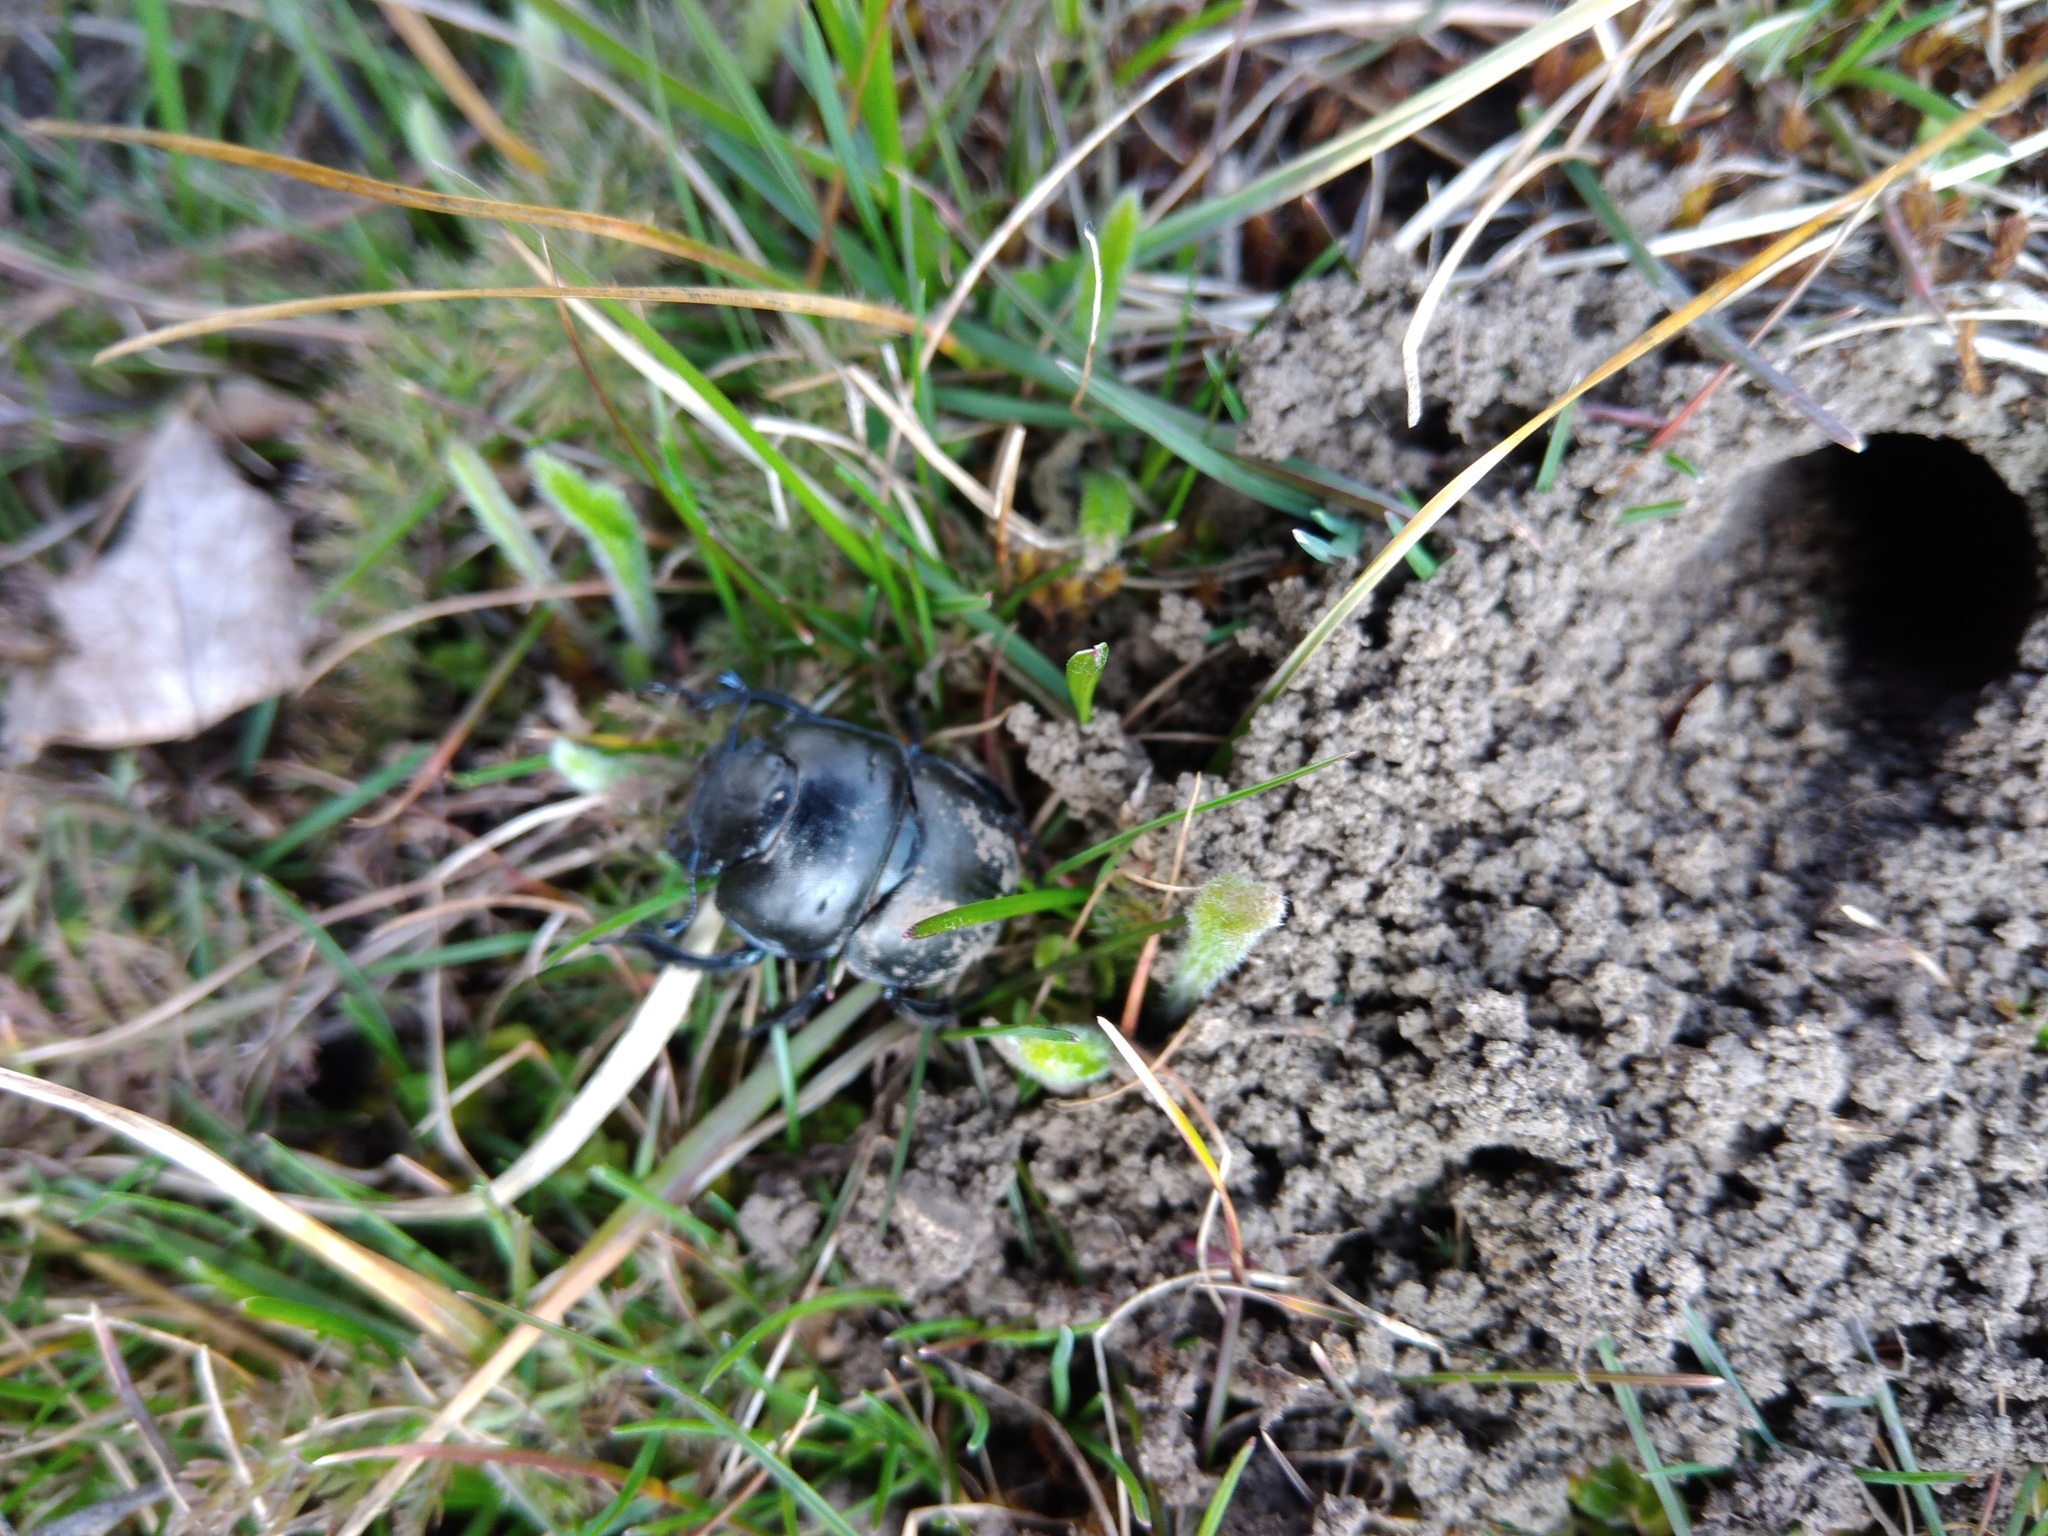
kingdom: Animalia
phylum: Arthropoda
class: Insecta
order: Coleoptera
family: Geotrupidae
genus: Lethrus
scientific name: Lethrus apterus
